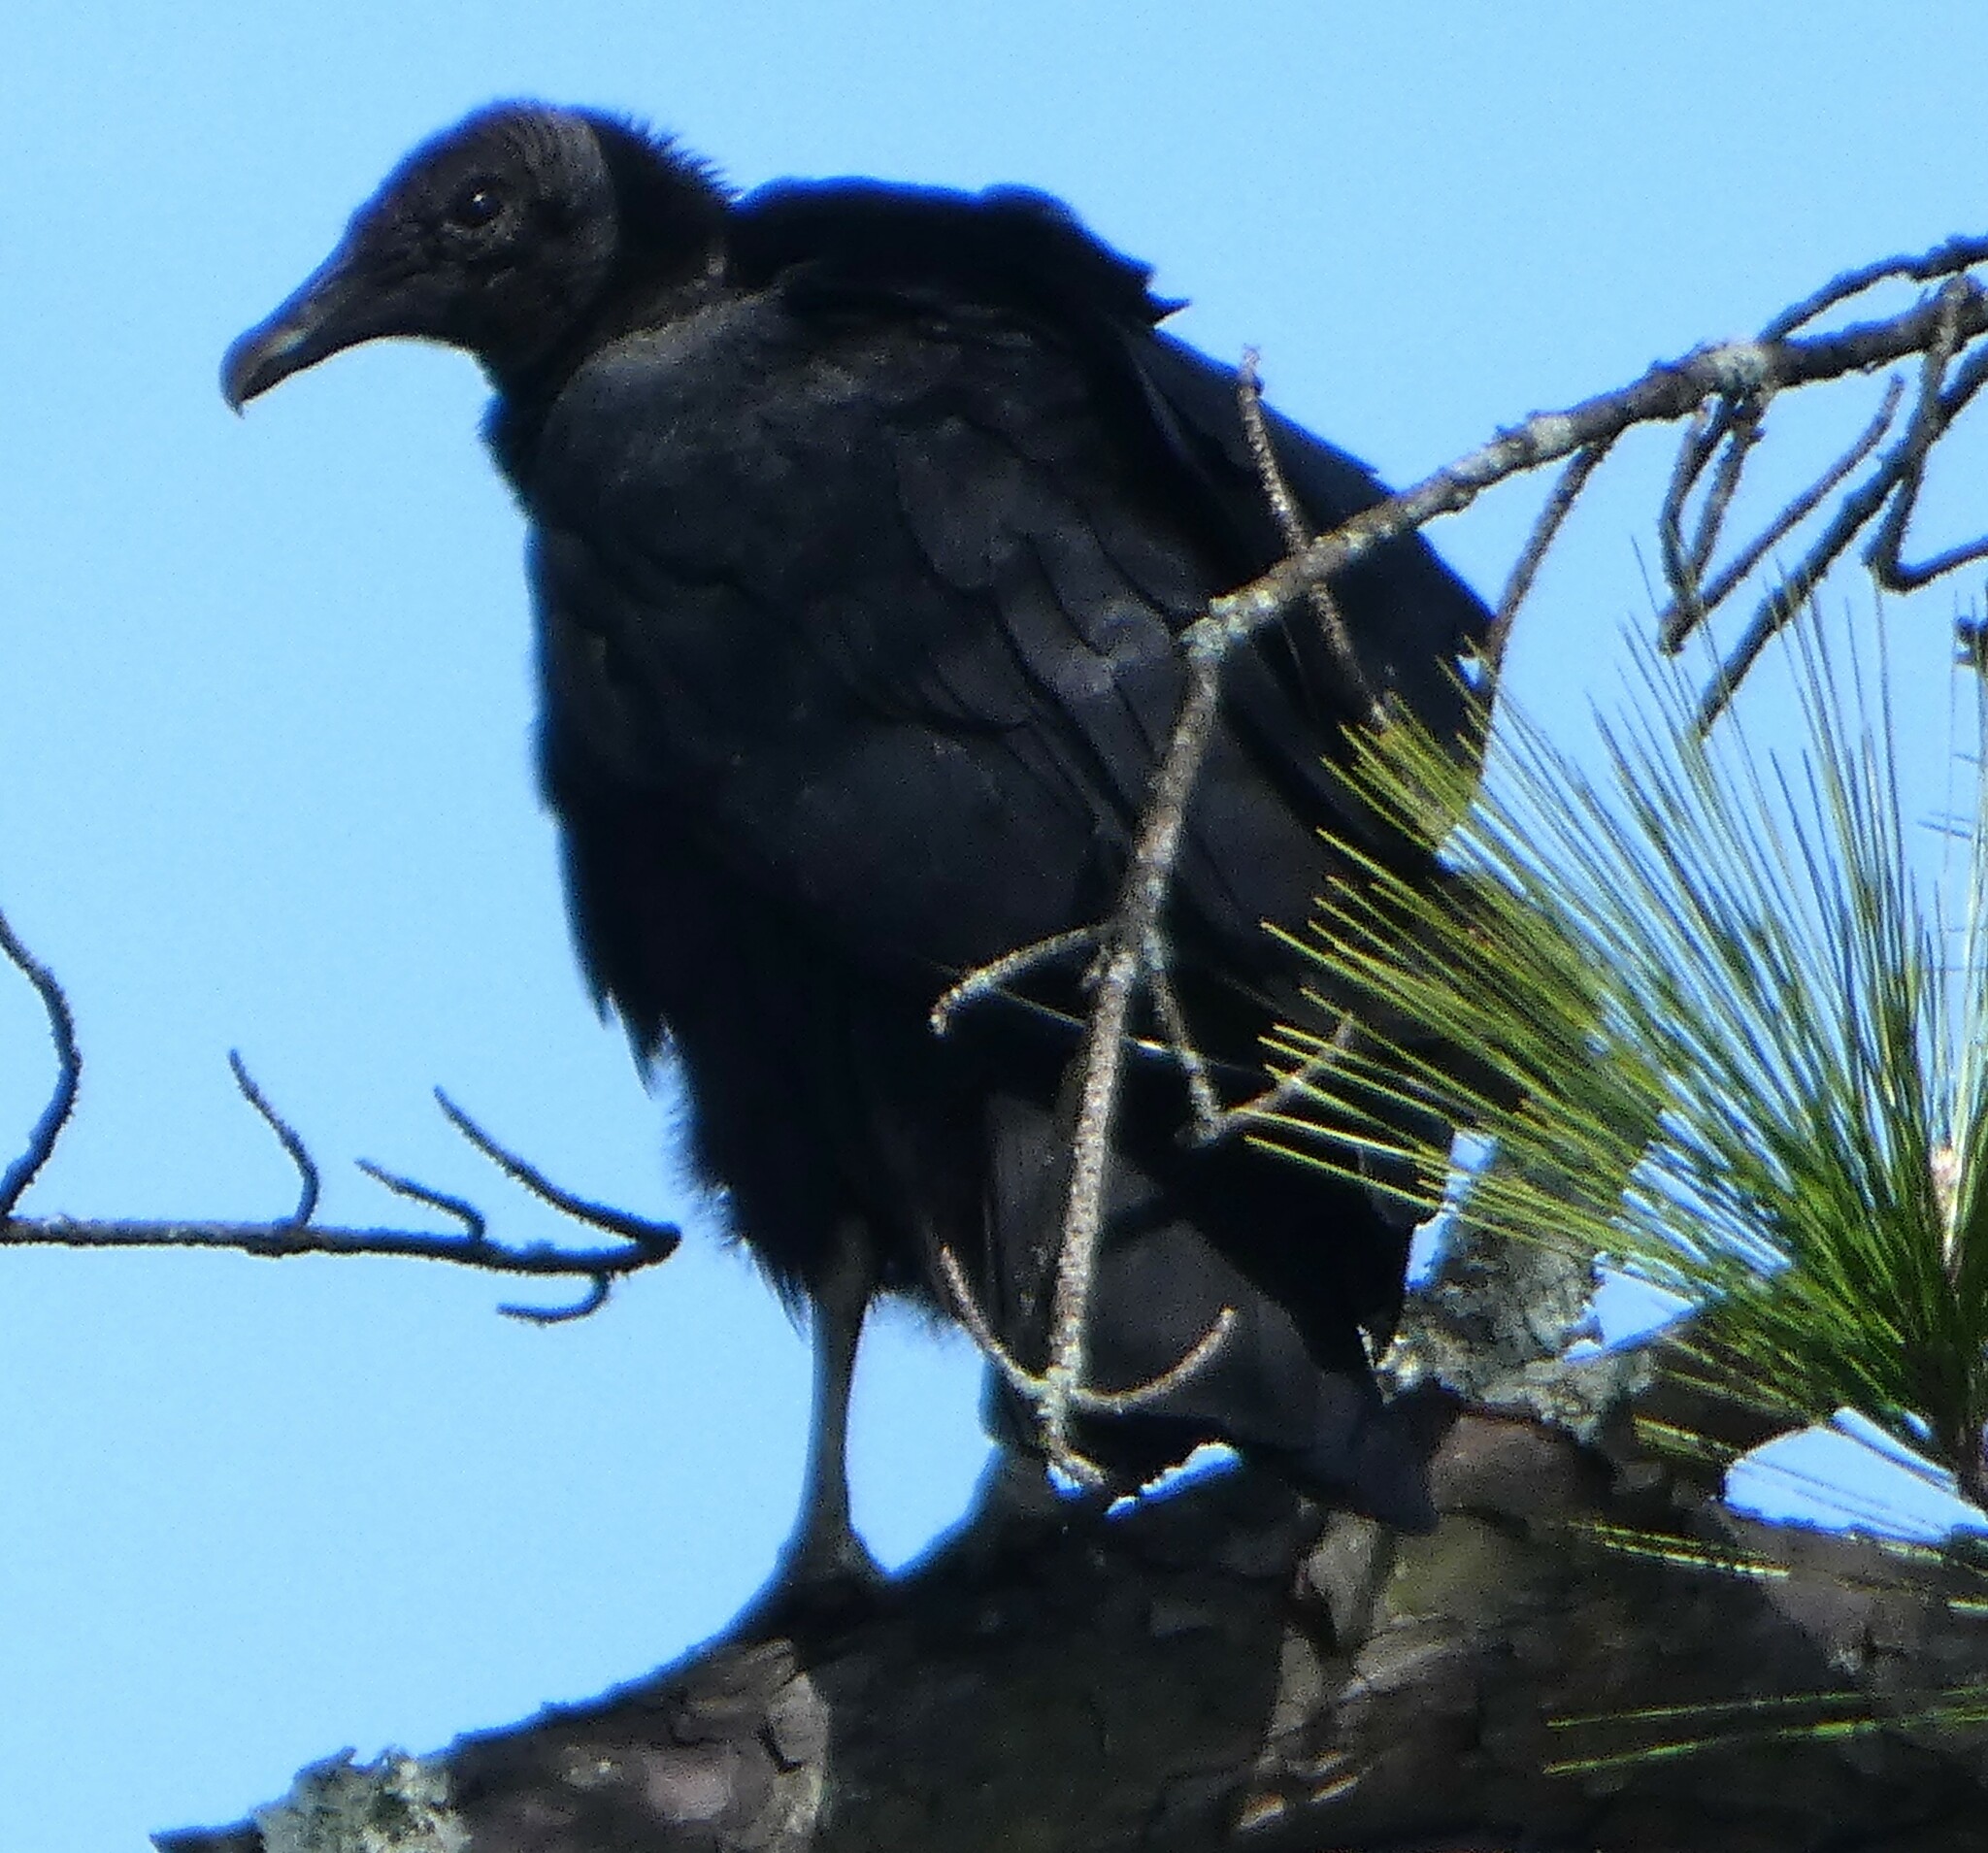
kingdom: Animalia
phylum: Chordata
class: Aves
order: Accipitriformes
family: Cathartidae
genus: Coragyps
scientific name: Coragyps atratus
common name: Black vulture
